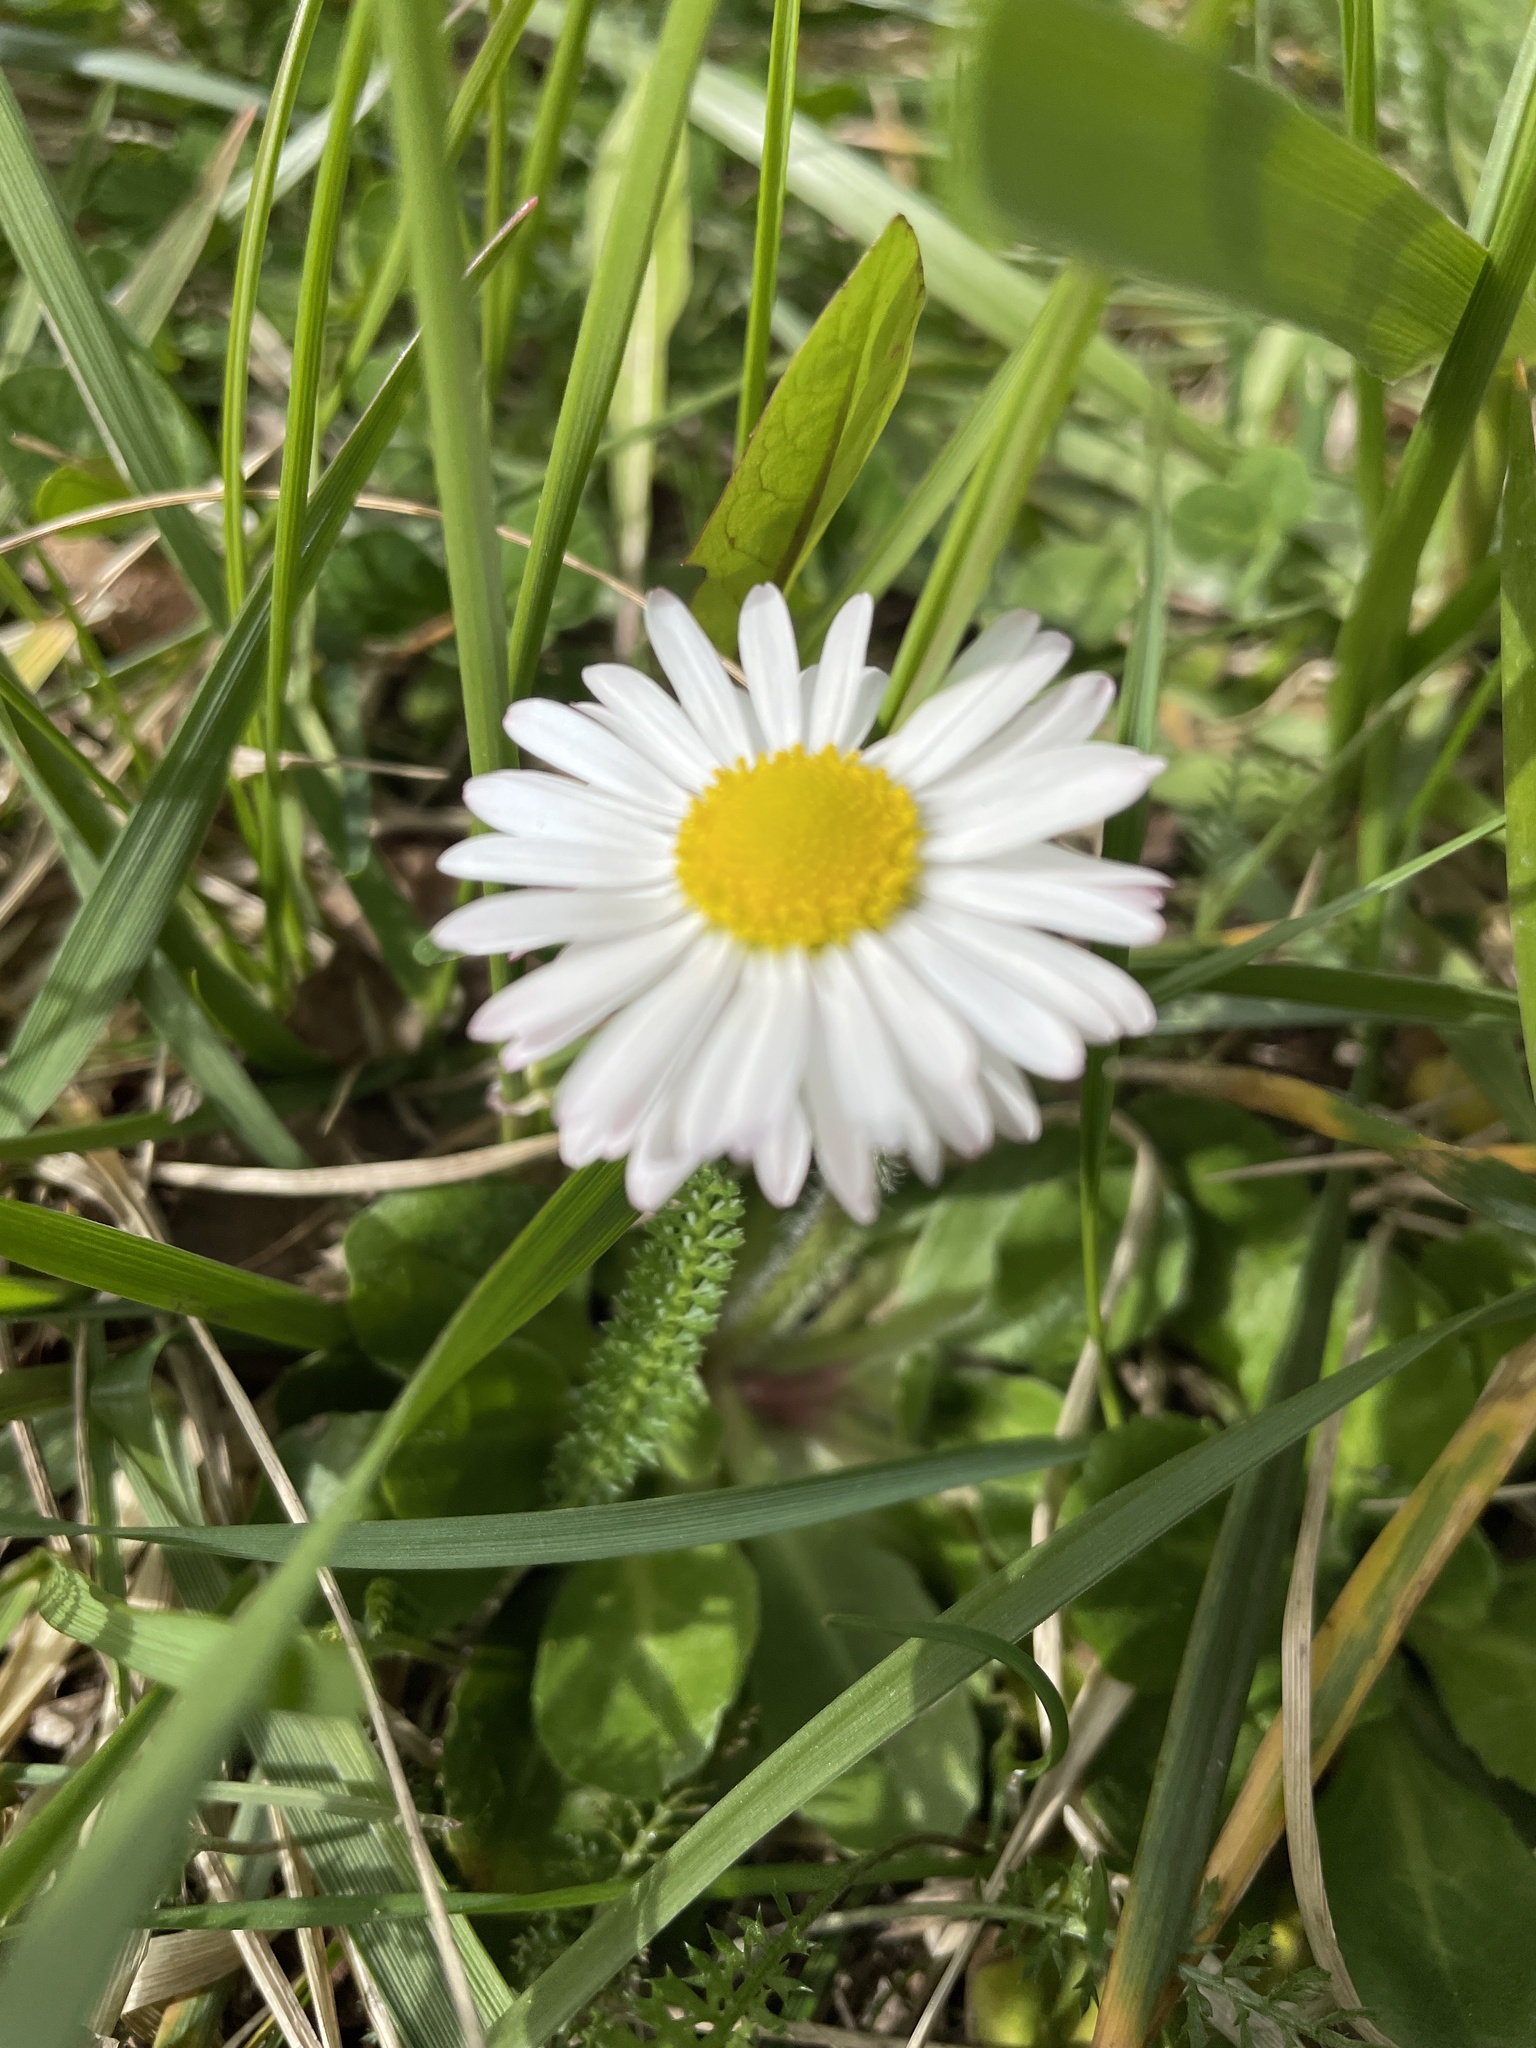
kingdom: Plantae
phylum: Tracheophyta
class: Magnoliopsida
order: Asterales
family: Asteraceae
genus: Bellis
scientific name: Bellis perennis
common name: Lawndaisy
